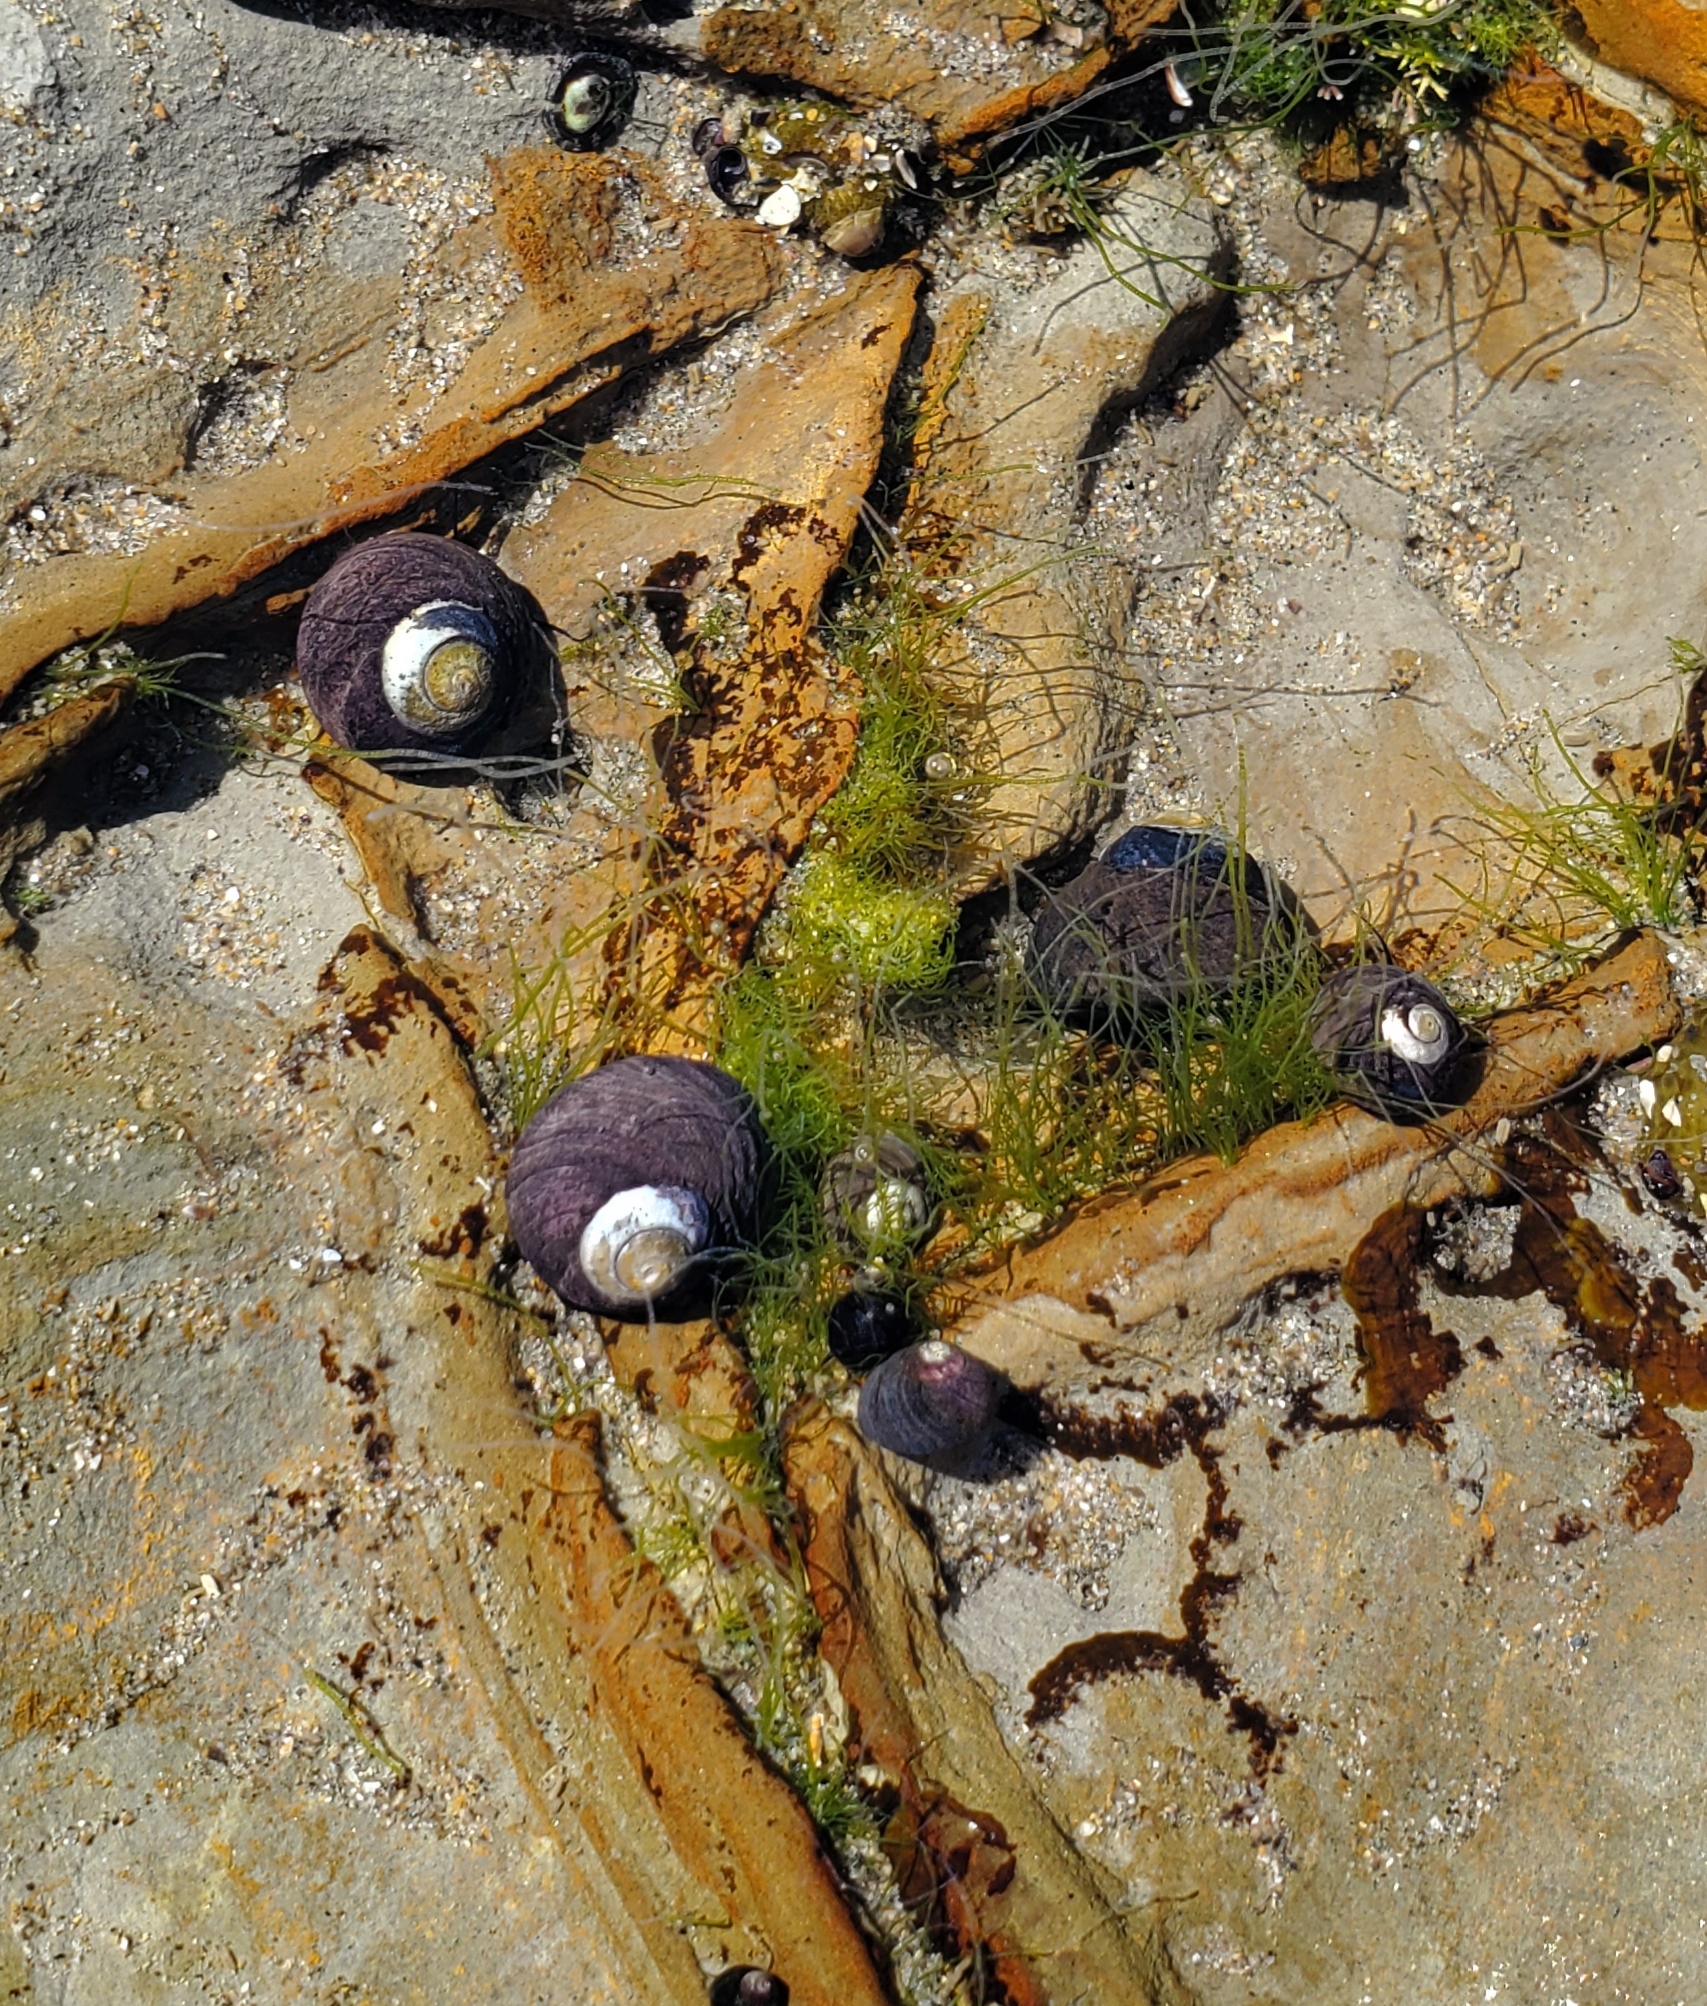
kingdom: Animalia
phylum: Mollusca
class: Gastropoda
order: Trochida
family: Tegulidae
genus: Tegula
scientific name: Tegula funebralis
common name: Black tegula
